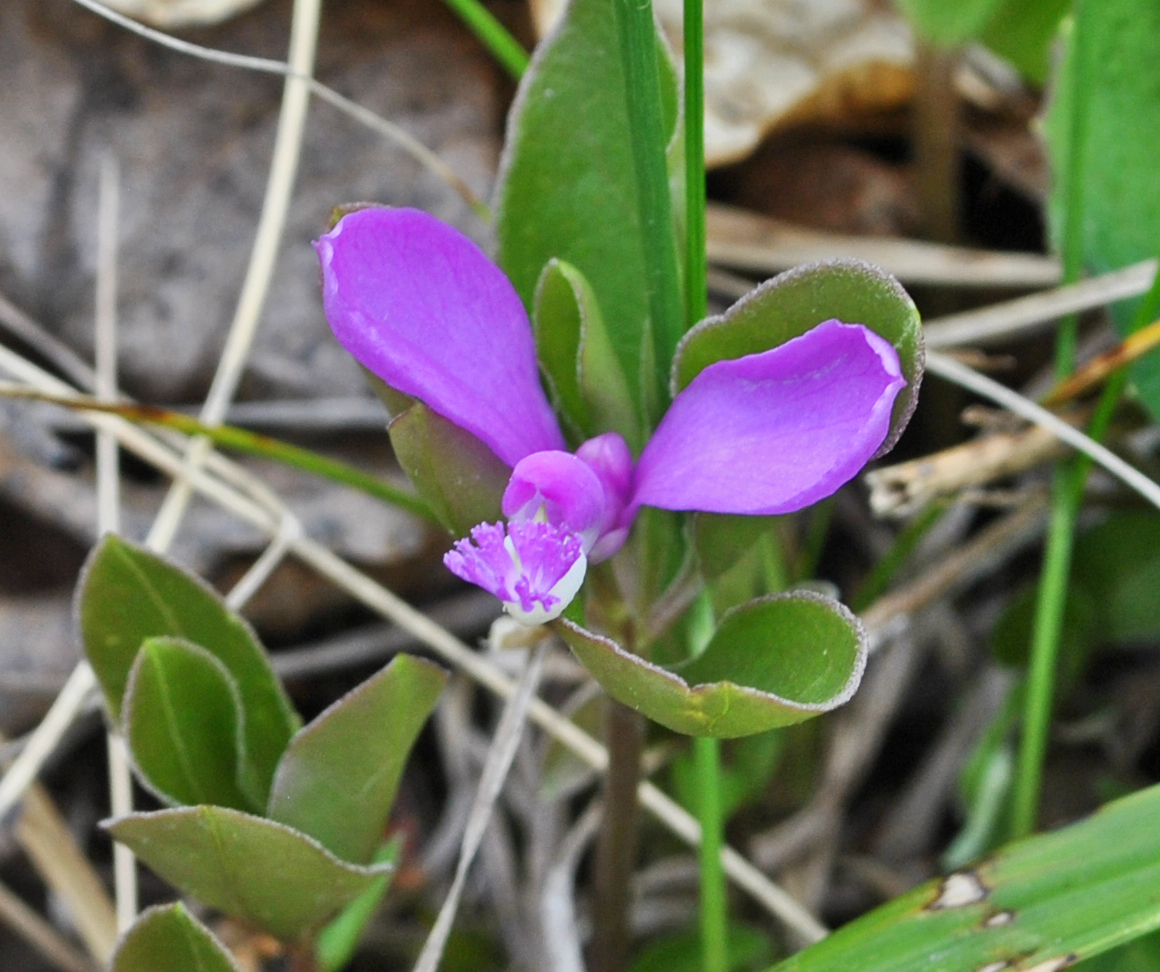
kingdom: Plantae
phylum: Tracheophyta
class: Magnoliopsida
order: Fabales
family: Polygalaceae
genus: Polygaloides
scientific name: Polygaloides paucifolia
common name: Bird-on-the-wing
